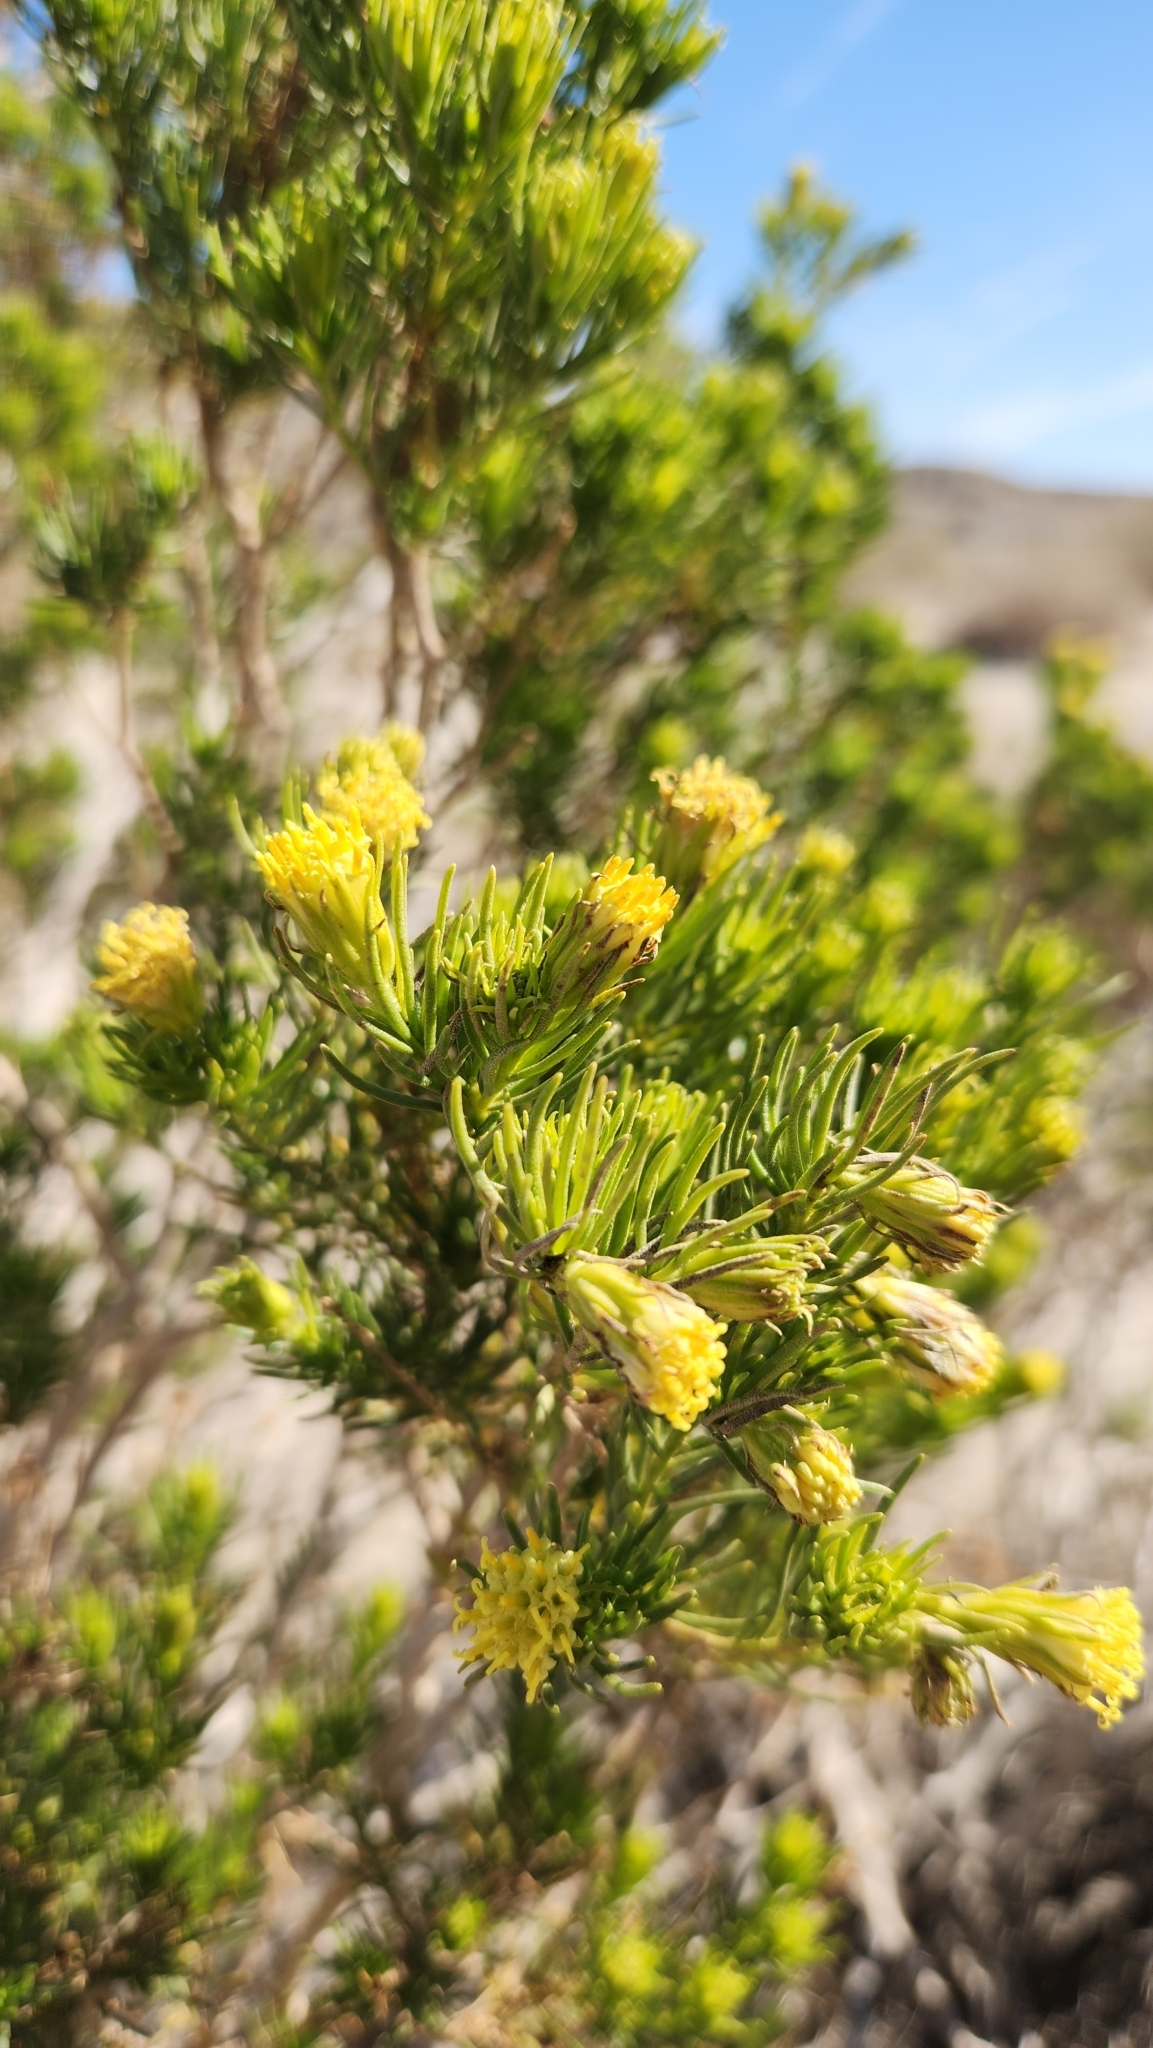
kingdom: Plantae
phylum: Tracheophyta
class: Magnoliopsida
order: Asterales
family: Asteraceae
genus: Peucephyllum
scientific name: Peucephyllum schottii
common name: Pygmy-cedar
